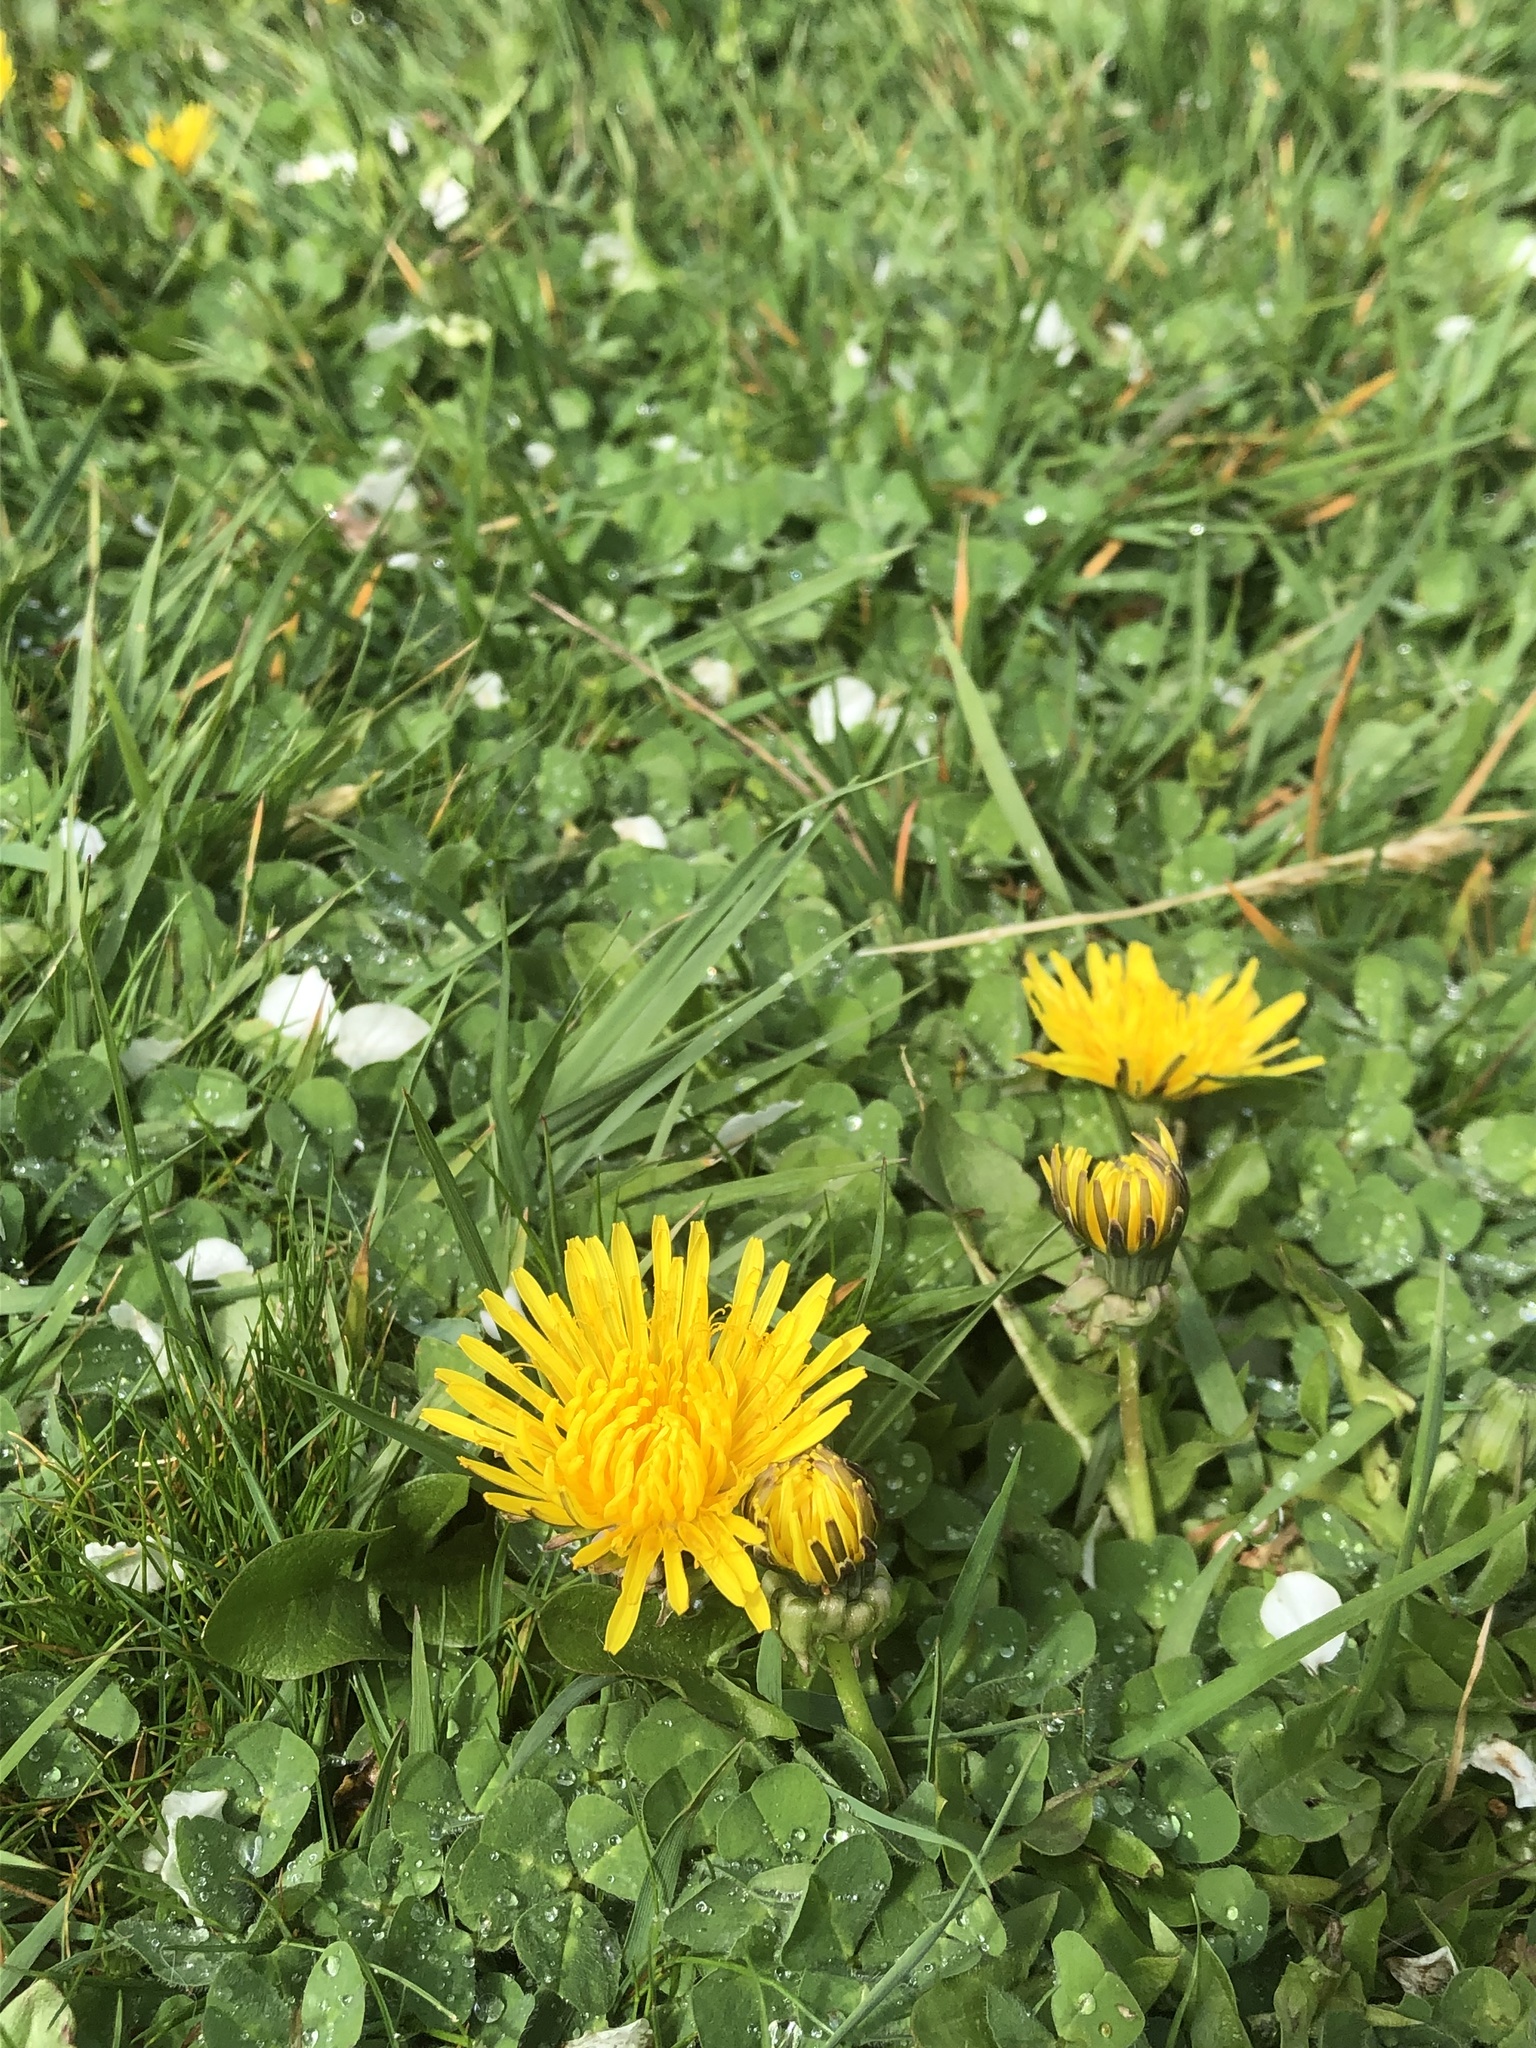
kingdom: Plantae
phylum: Tracheophyta
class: Magnoliopsida
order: Asterales
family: Asteraceae
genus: Taraxacum
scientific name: Taraxacum officinale
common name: Common dandelion
